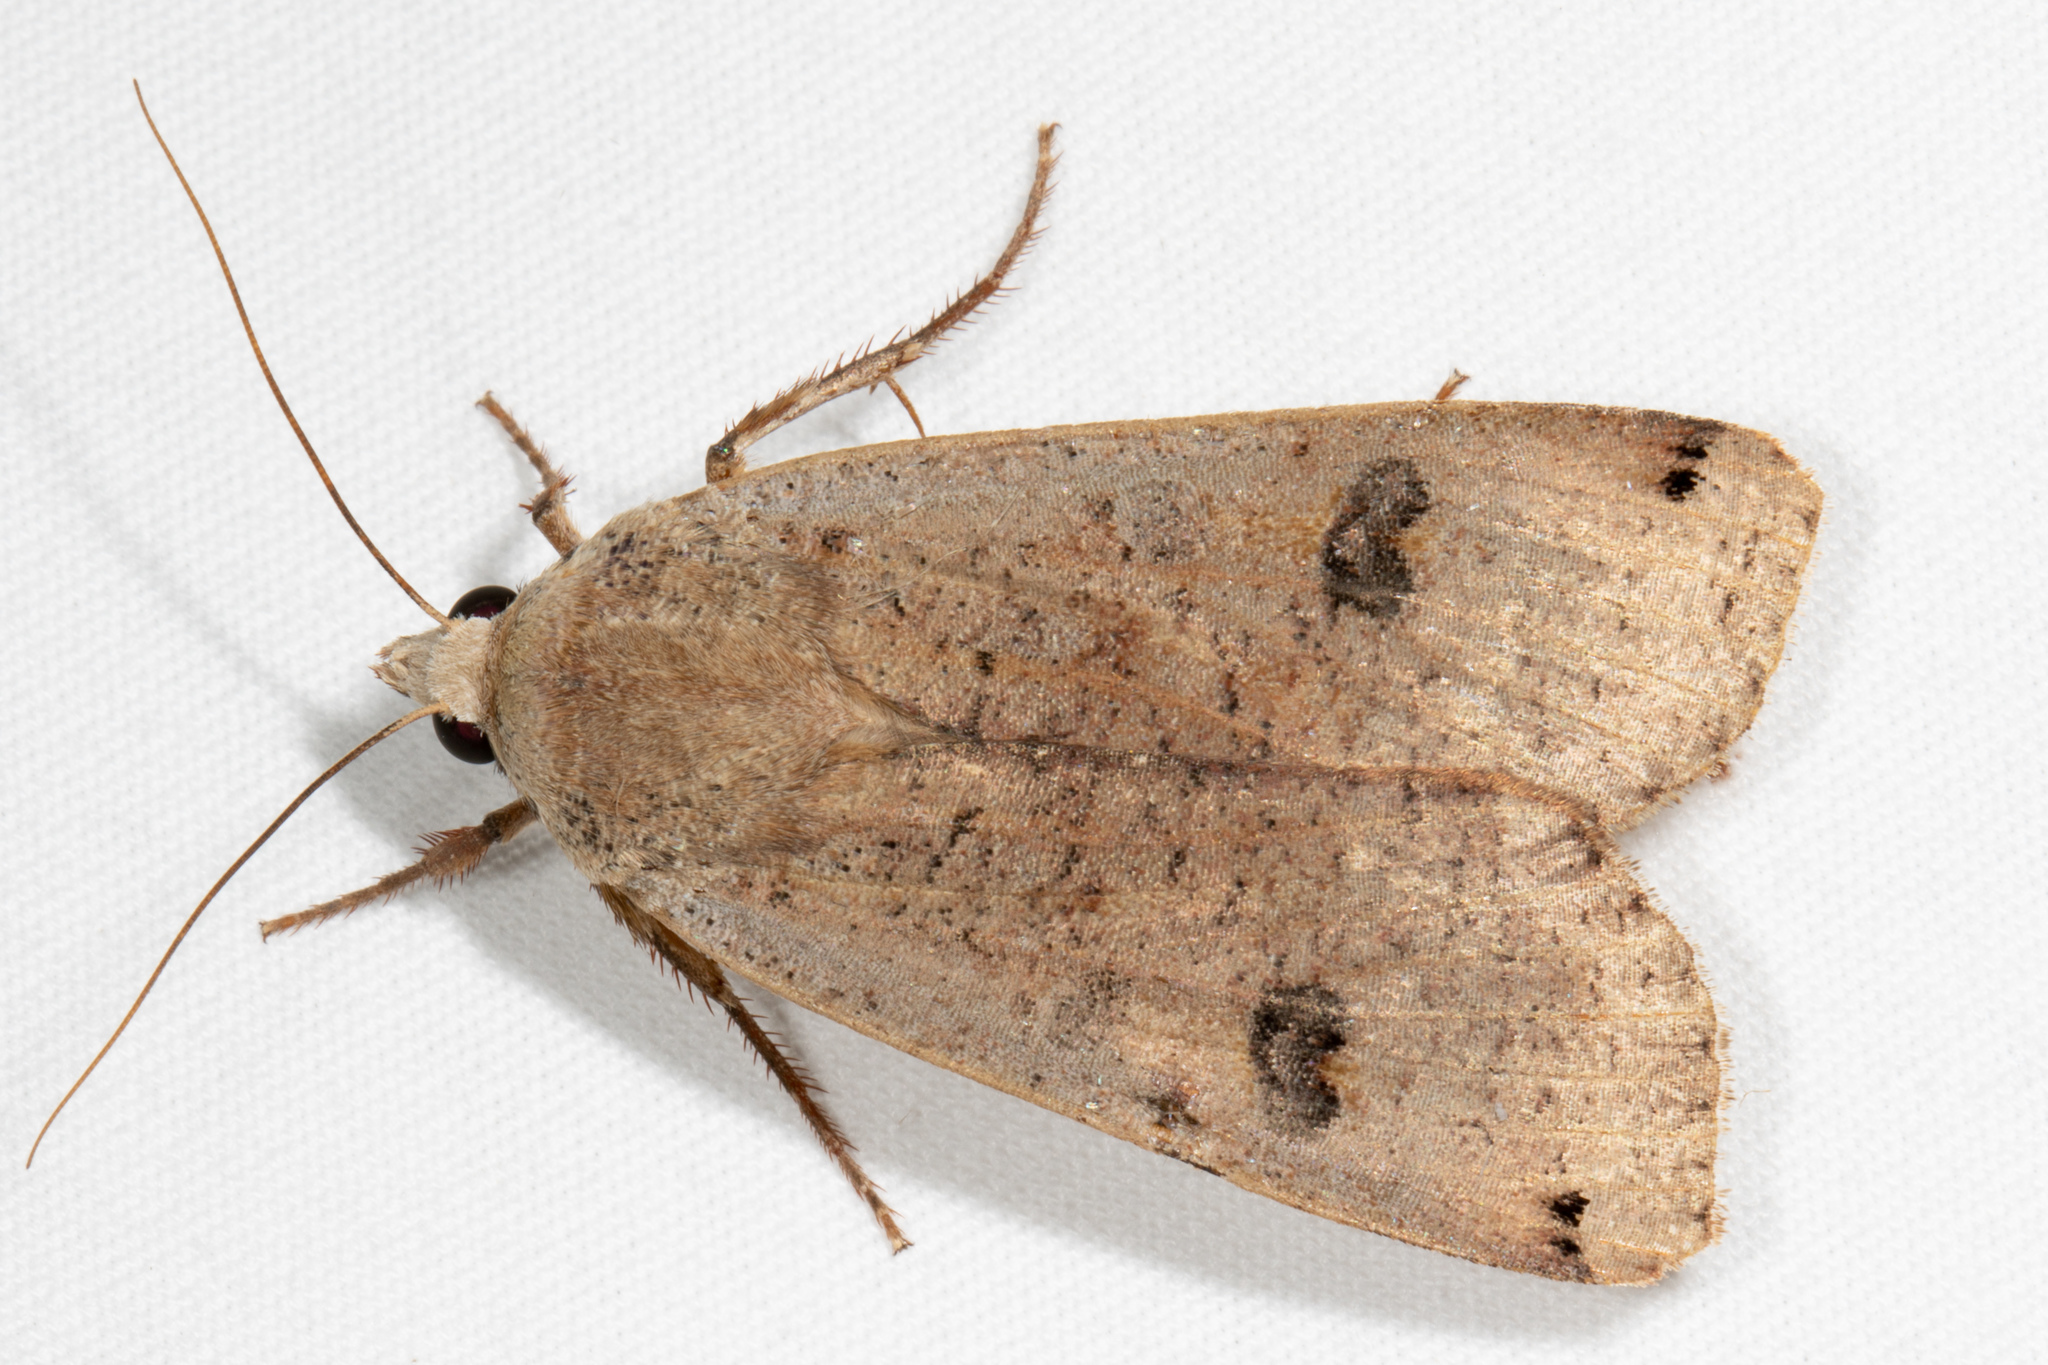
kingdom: Animalia
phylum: Arthropoda
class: Insecta
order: Lepidoptera
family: Noctuidae
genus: Noctua
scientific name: Noctua pronuba
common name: Large yellow underwing
